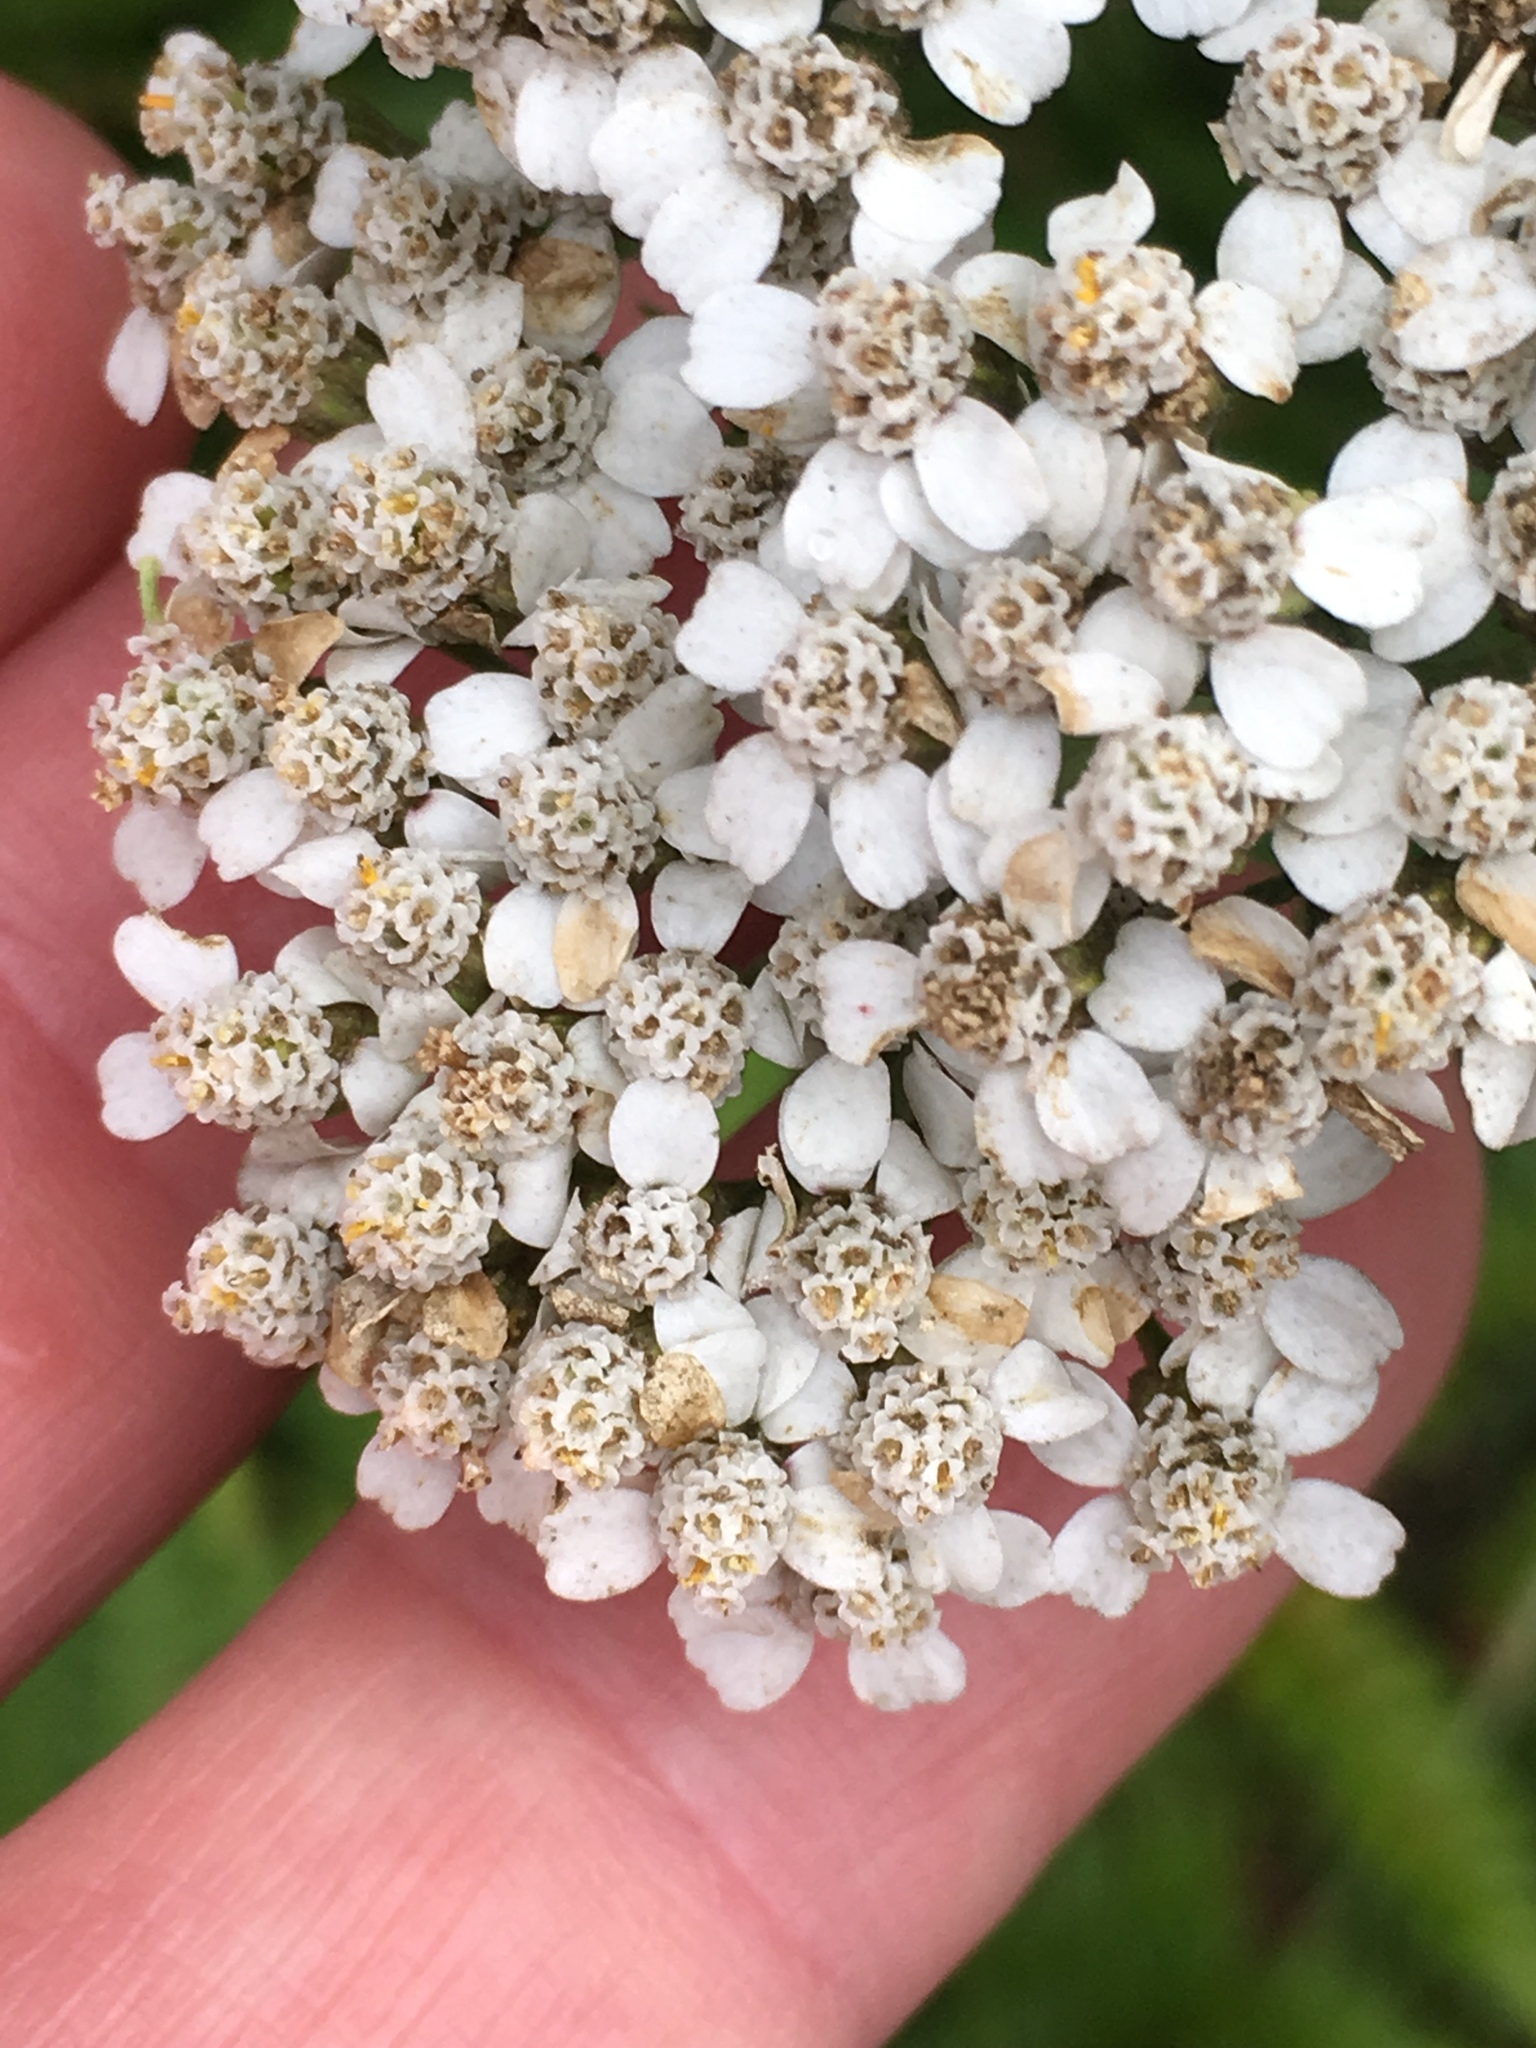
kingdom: Plantae
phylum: Tracheophyta
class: Magnoliopsida
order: Asterales
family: Asteraceae
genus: Achillea
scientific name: Achillea millefolium
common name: Yarrow
